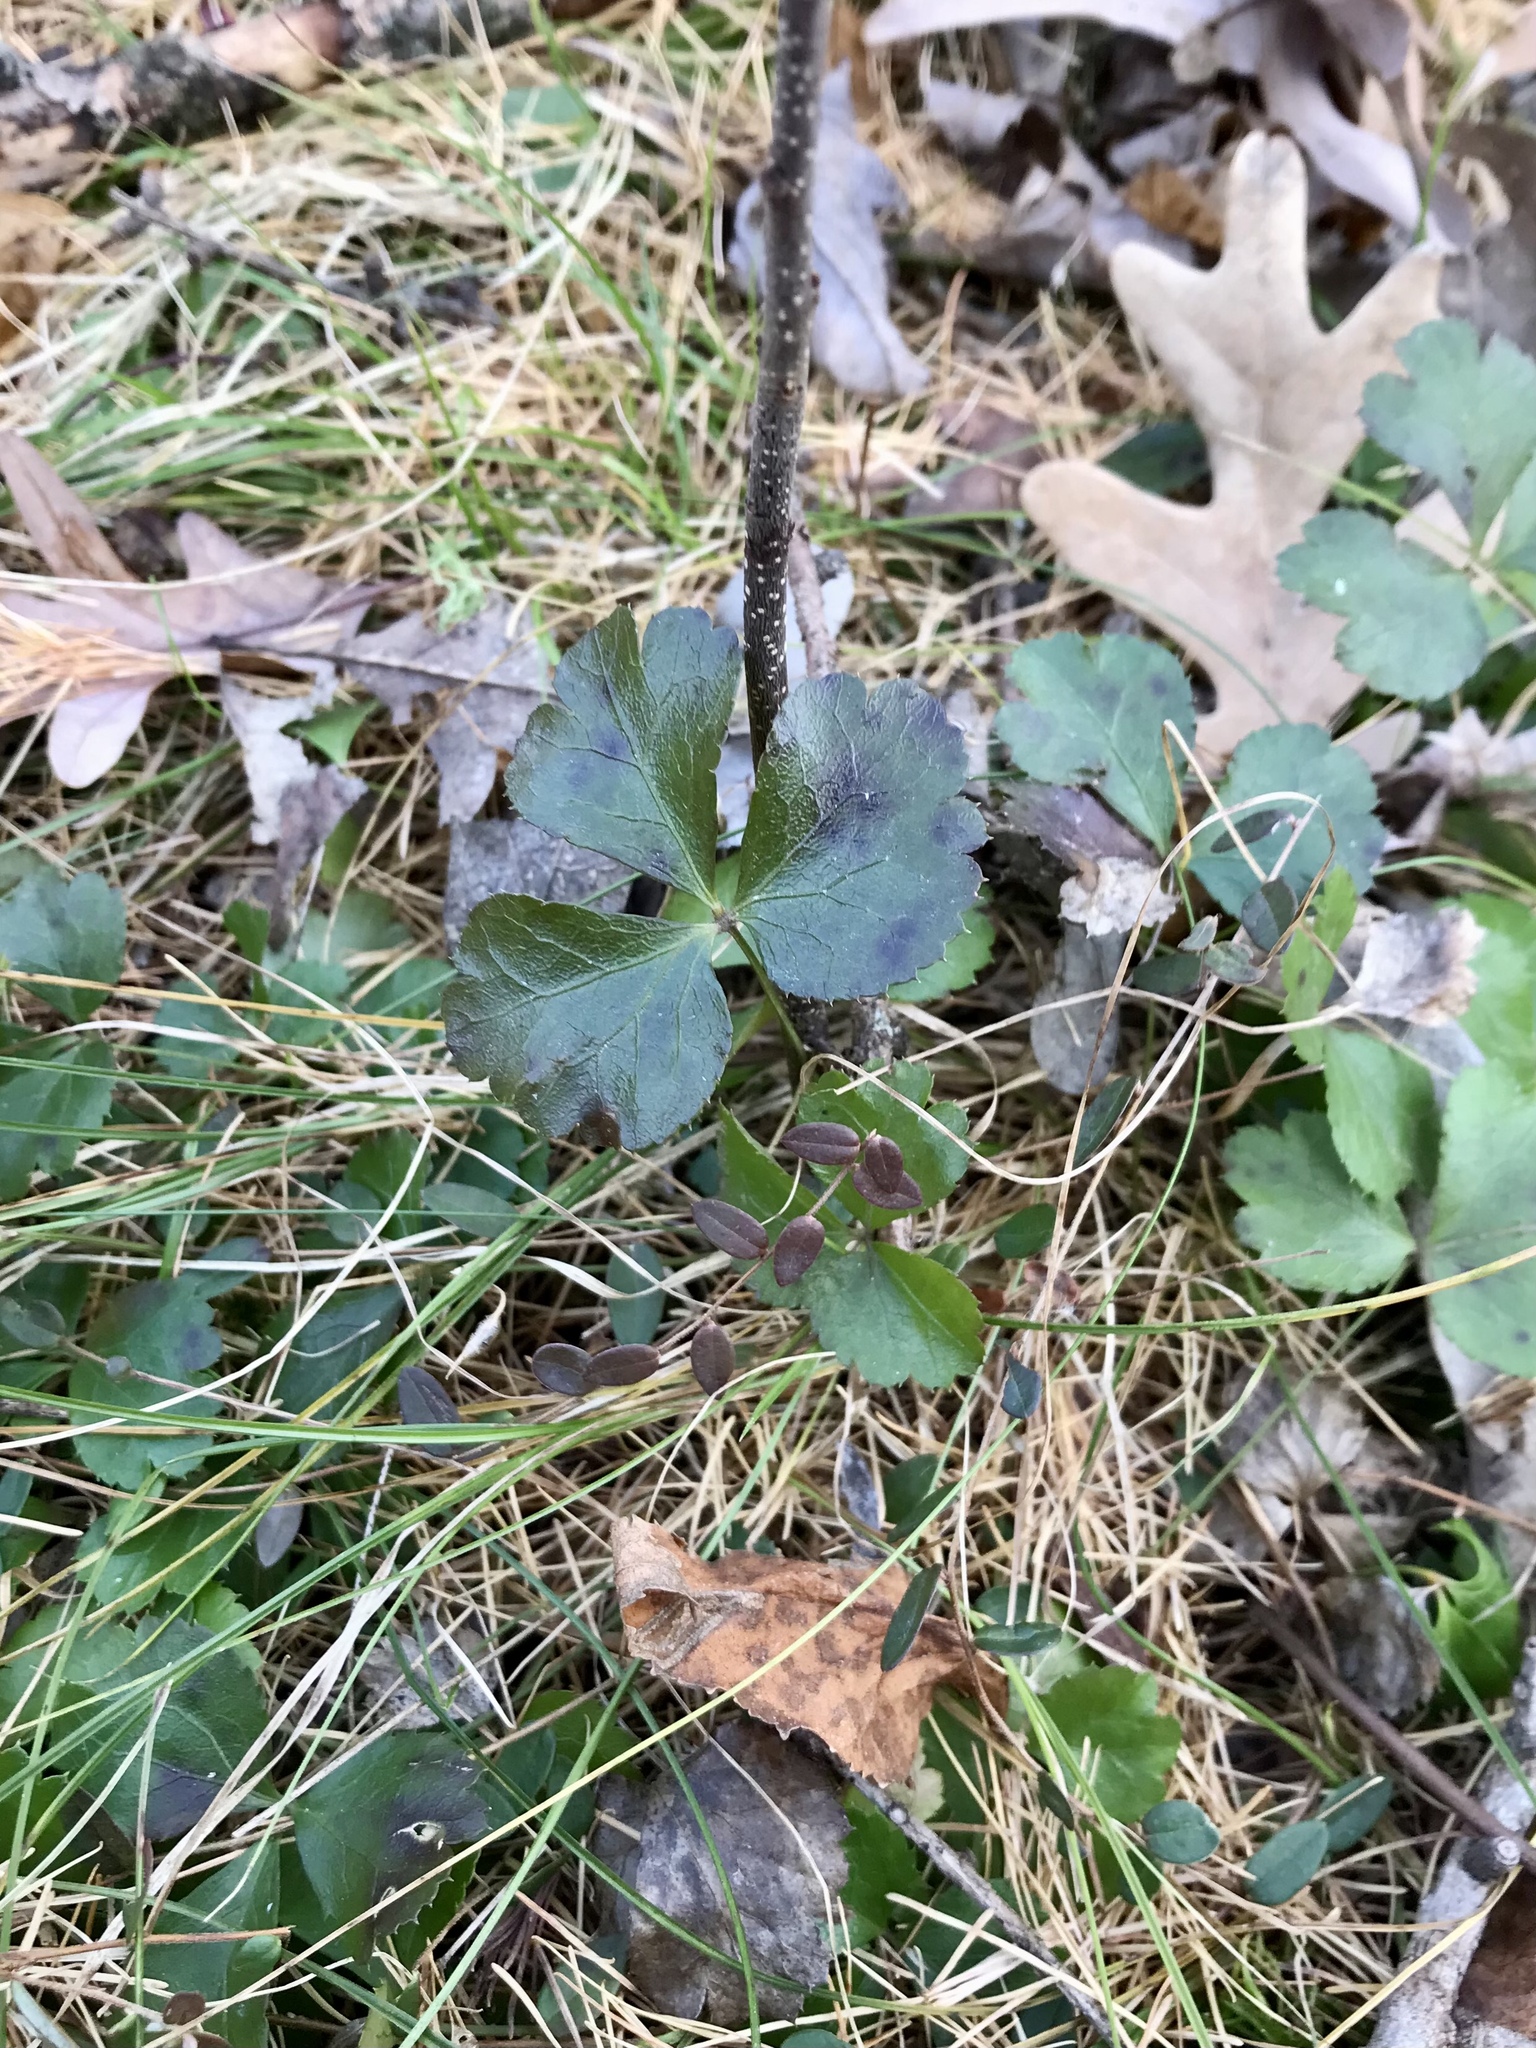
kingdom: Plantae
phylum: Tracheophyta
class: Magnoliopsida
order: Ranunculales
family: Ranunculaceae
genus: Coptis
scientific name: Coptis trifolia
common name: Canker-root
